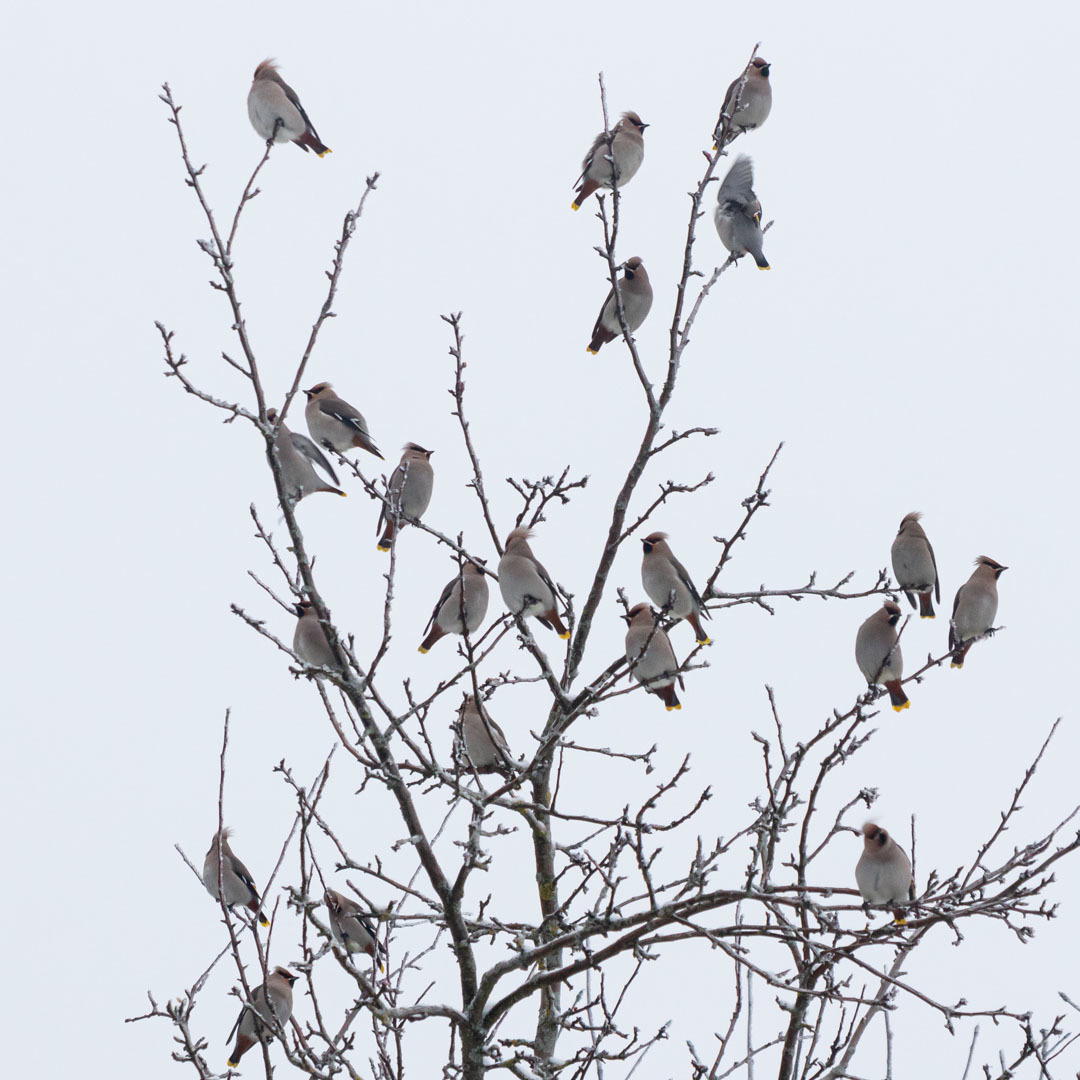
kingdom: Animalia
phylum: Chordata
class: Aves
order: Passeriformes
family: Bombycillidae
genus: Bombycilla
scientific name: Bombycilla garrulus
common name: Bohemian waxwing
